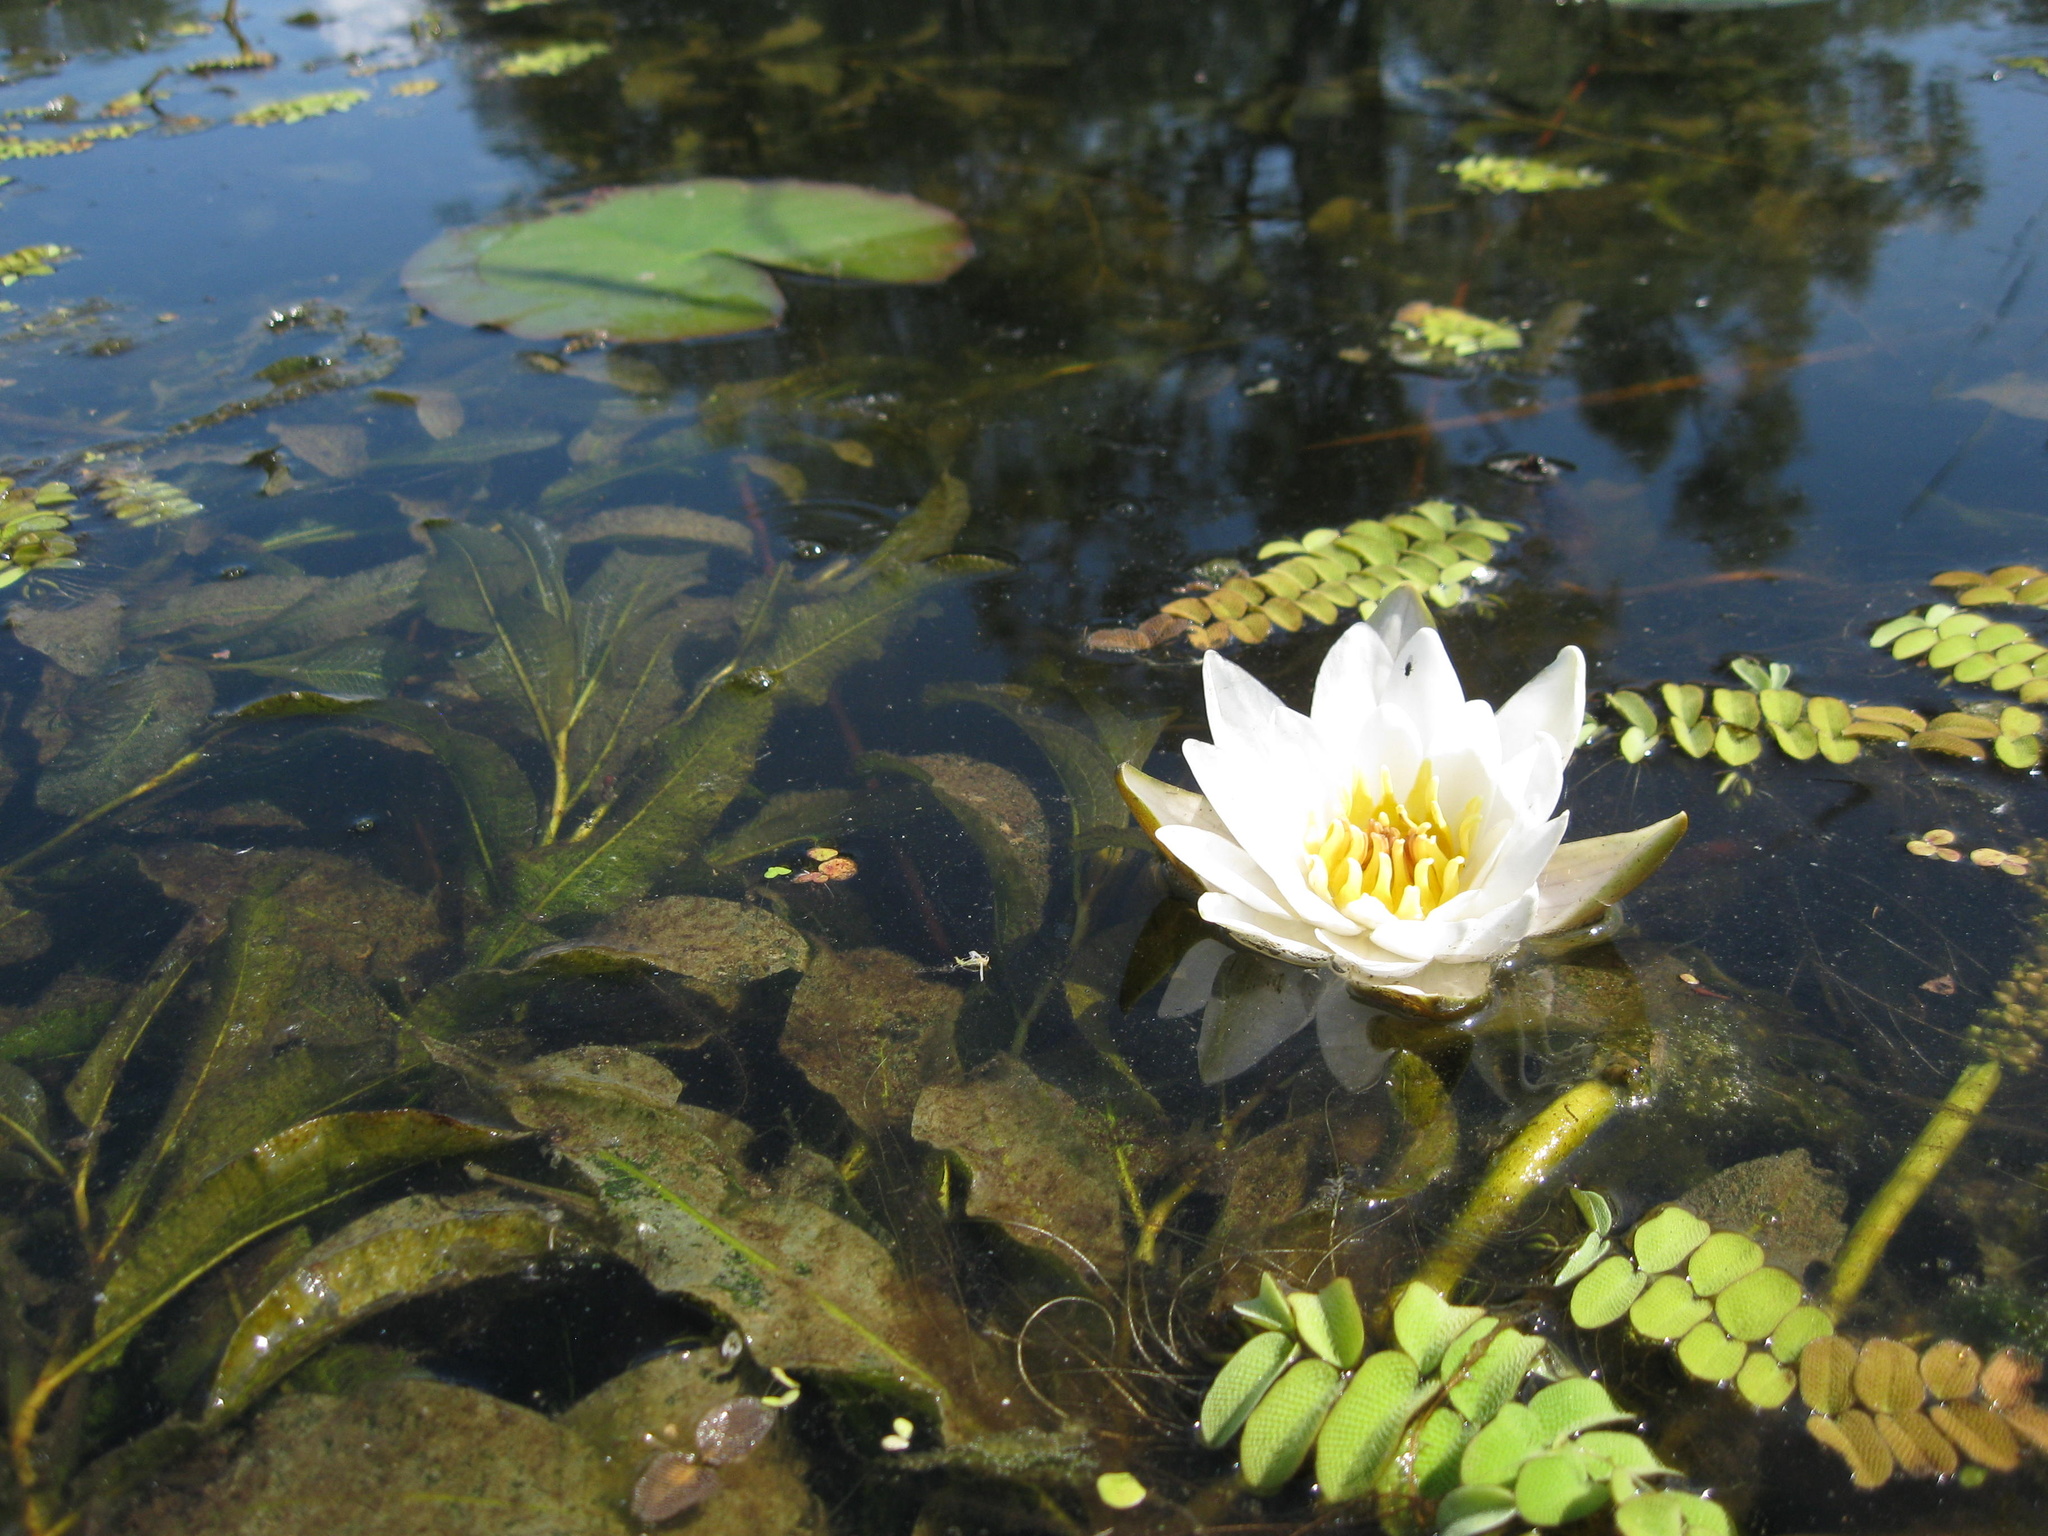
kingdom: Plantae
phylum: Tracheophyta
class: Magnoliopsida
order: Nymphaeales
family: Nymphaeaceae
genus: Nymphaea
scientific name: Nymphaea candida
